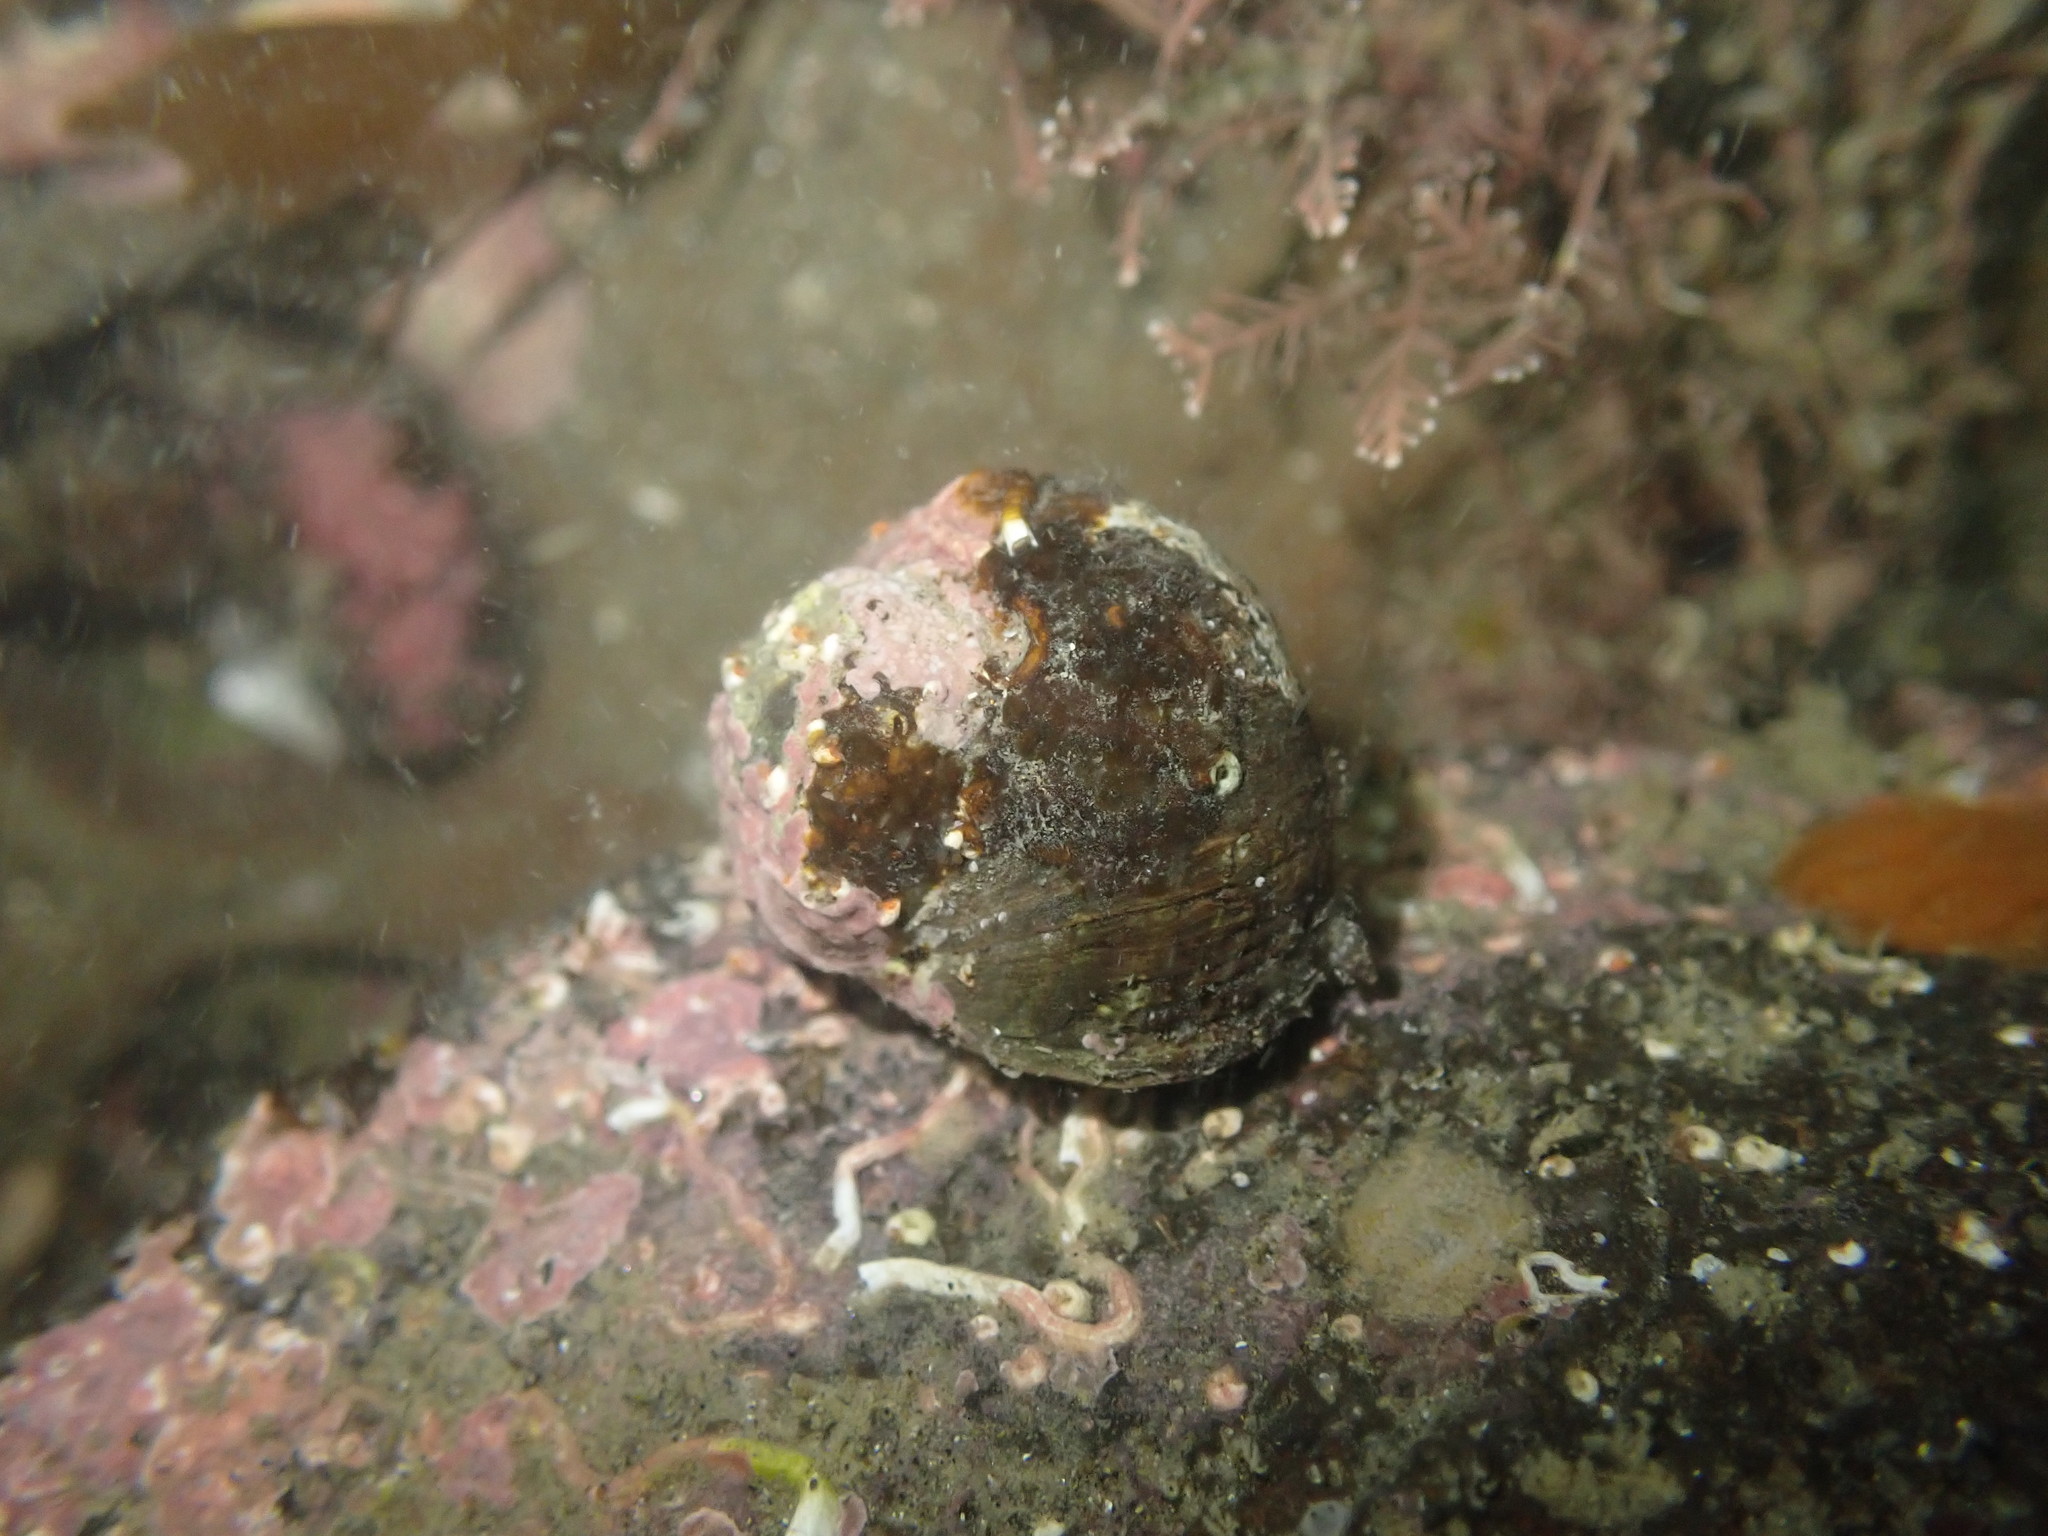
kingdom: Animalia
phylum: Mollusca
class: Gastropoda
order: Trochida
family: Turbinidae
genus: Lunella
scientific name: Lunella smaragda
